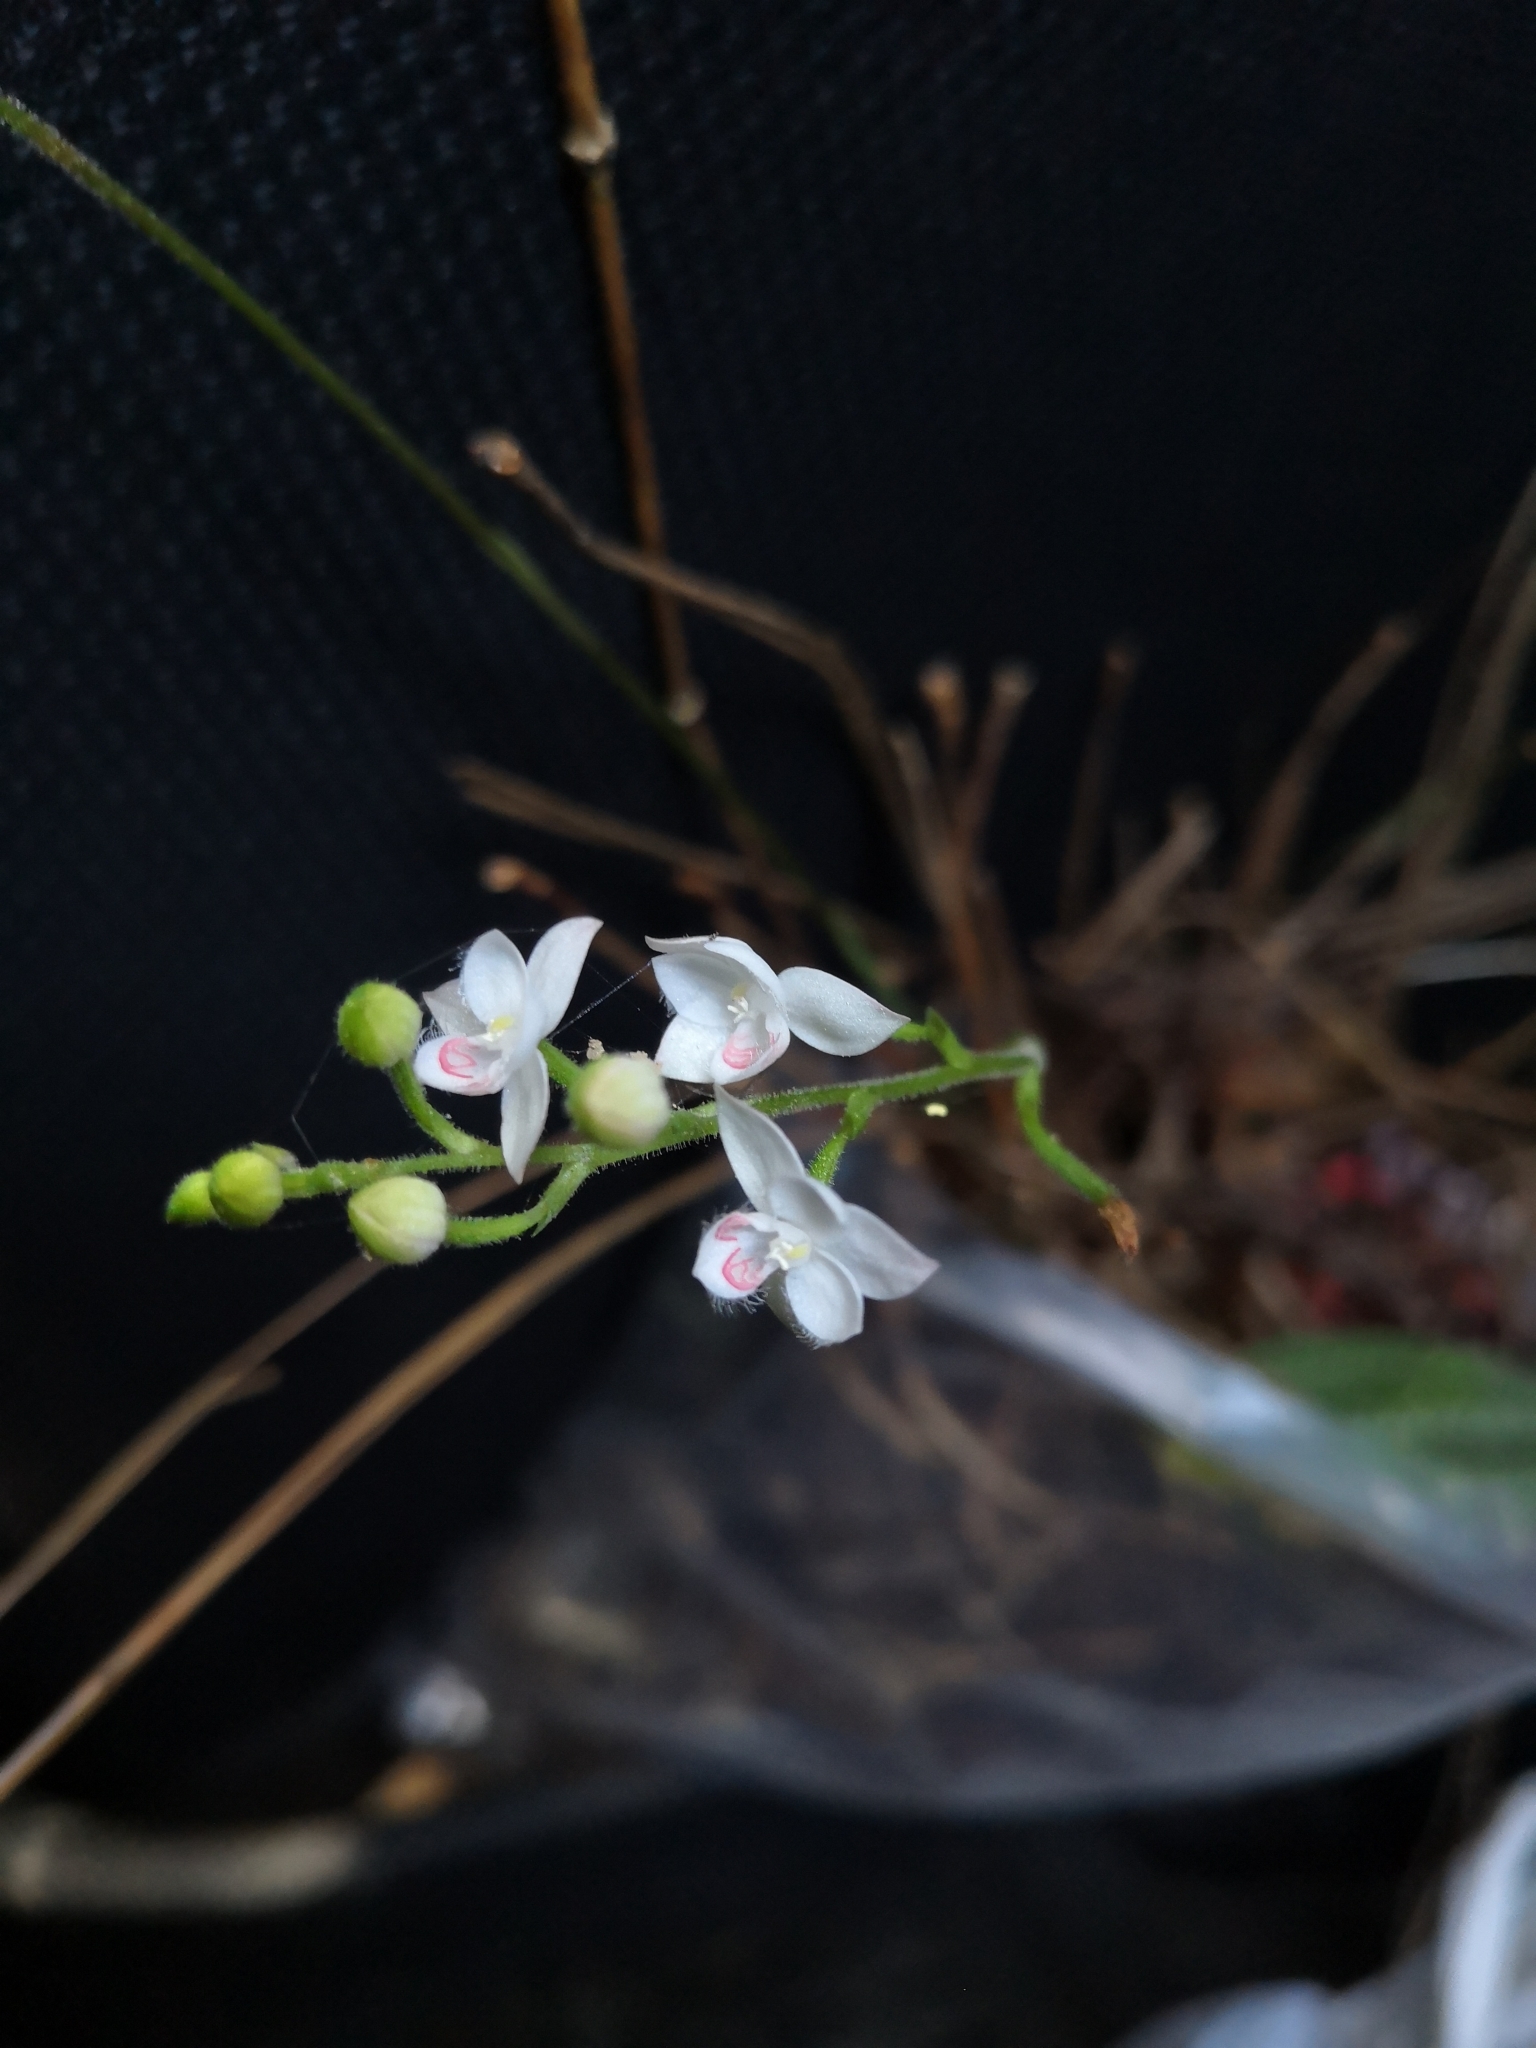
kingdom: Plantae
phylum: Tracheophyta
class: Liliopsida
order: Asparagales
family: Orchidaceae
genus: Cranichis
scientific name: Cranichis ciliilabia
